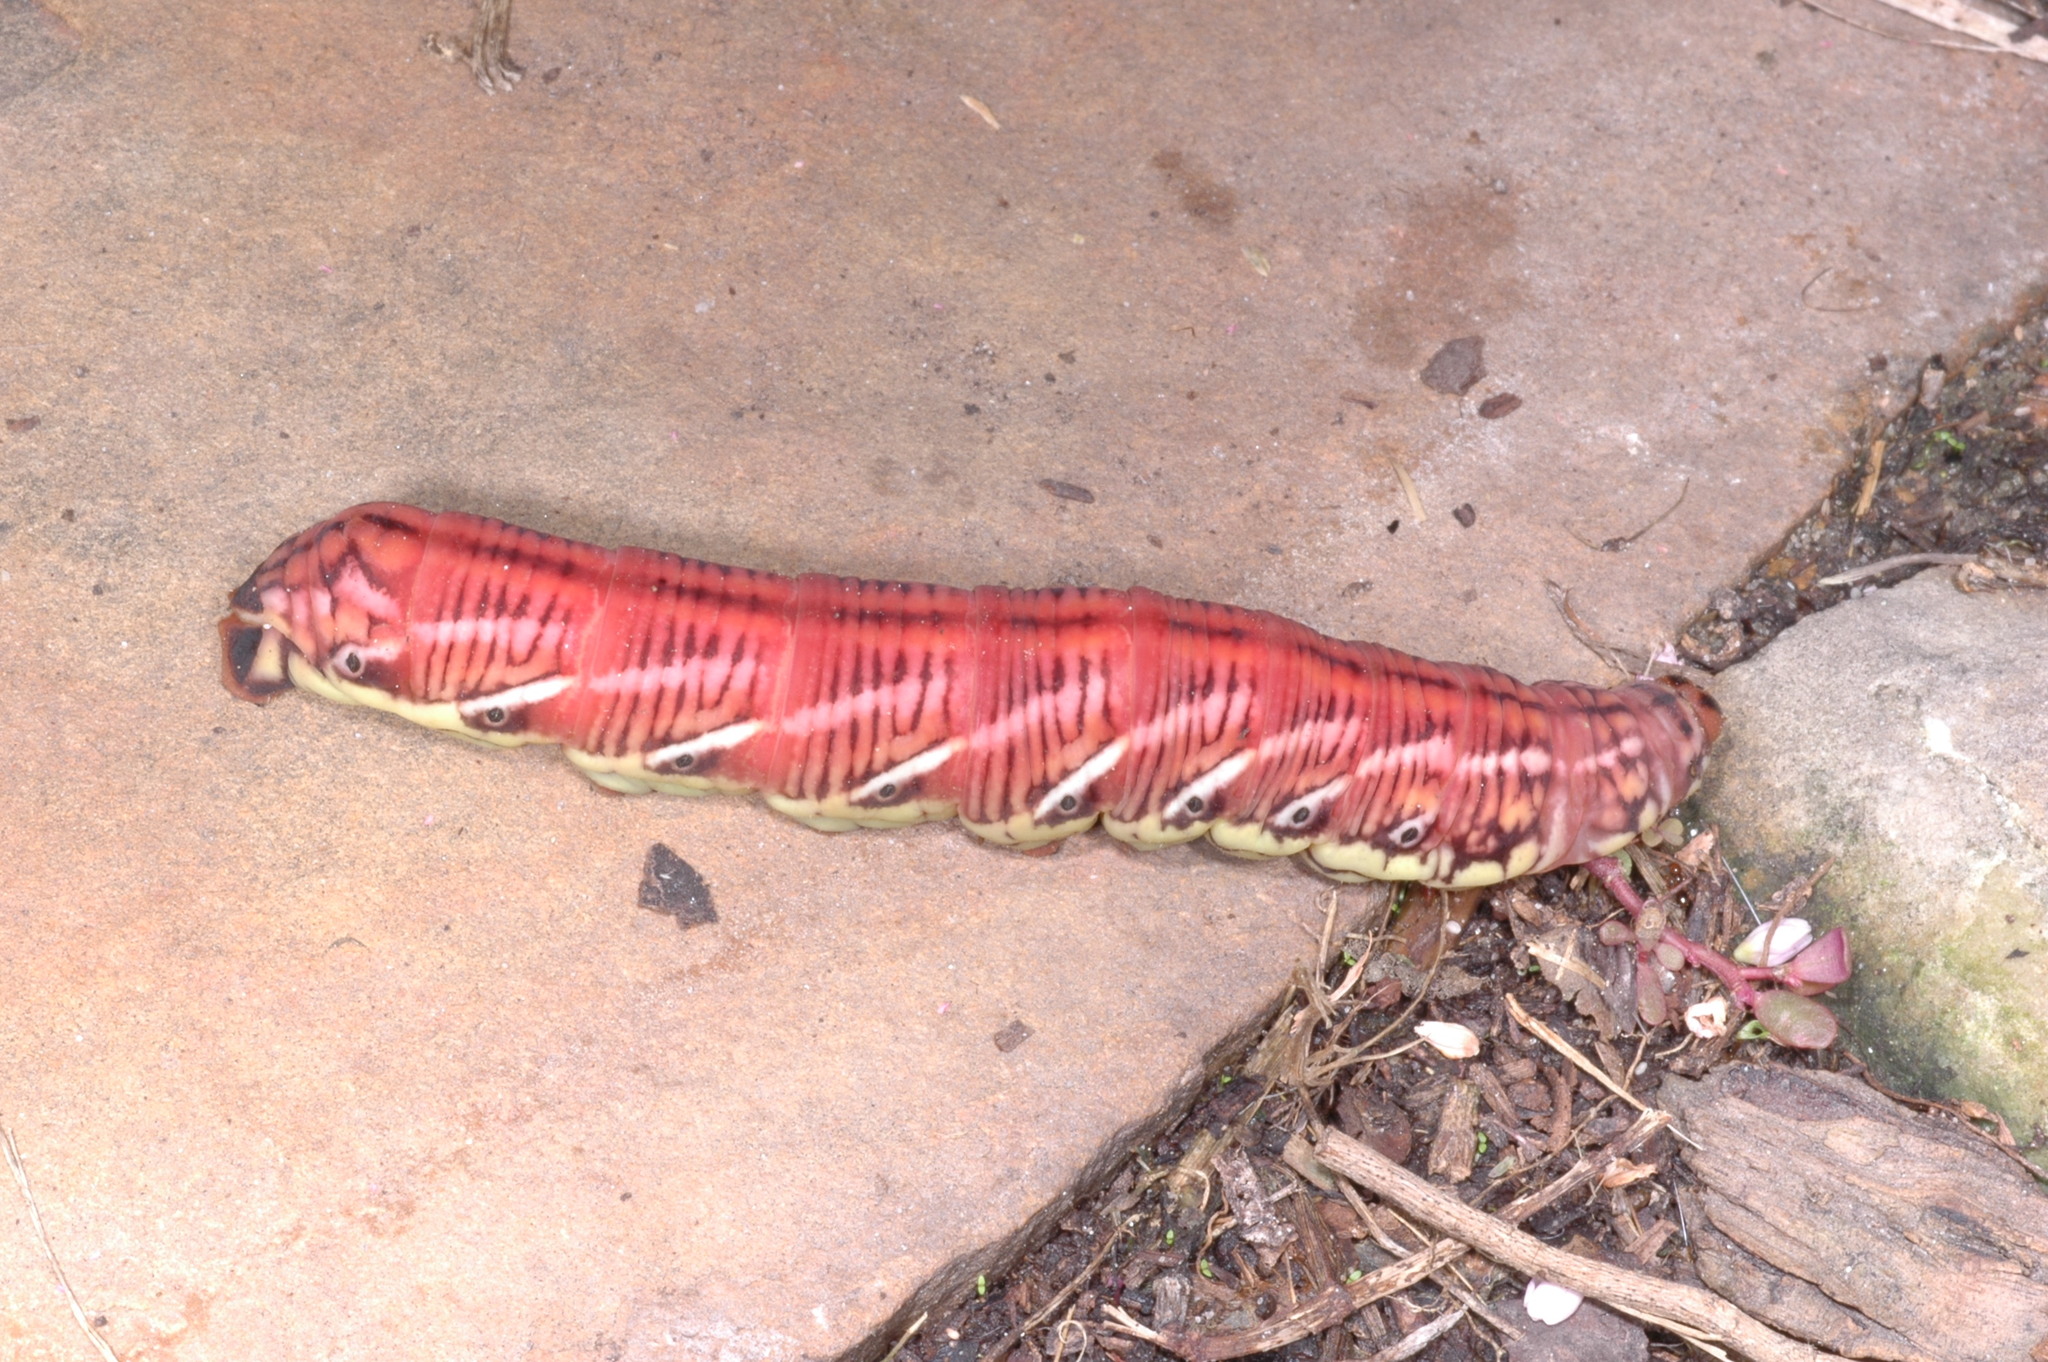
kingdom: Animalia
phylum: Arthropoda
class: Insecta
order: Lepidoptera
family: Sphingidae
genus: Eumorpha
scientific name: Eumorpha fasciatus
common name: Banded sphinx
